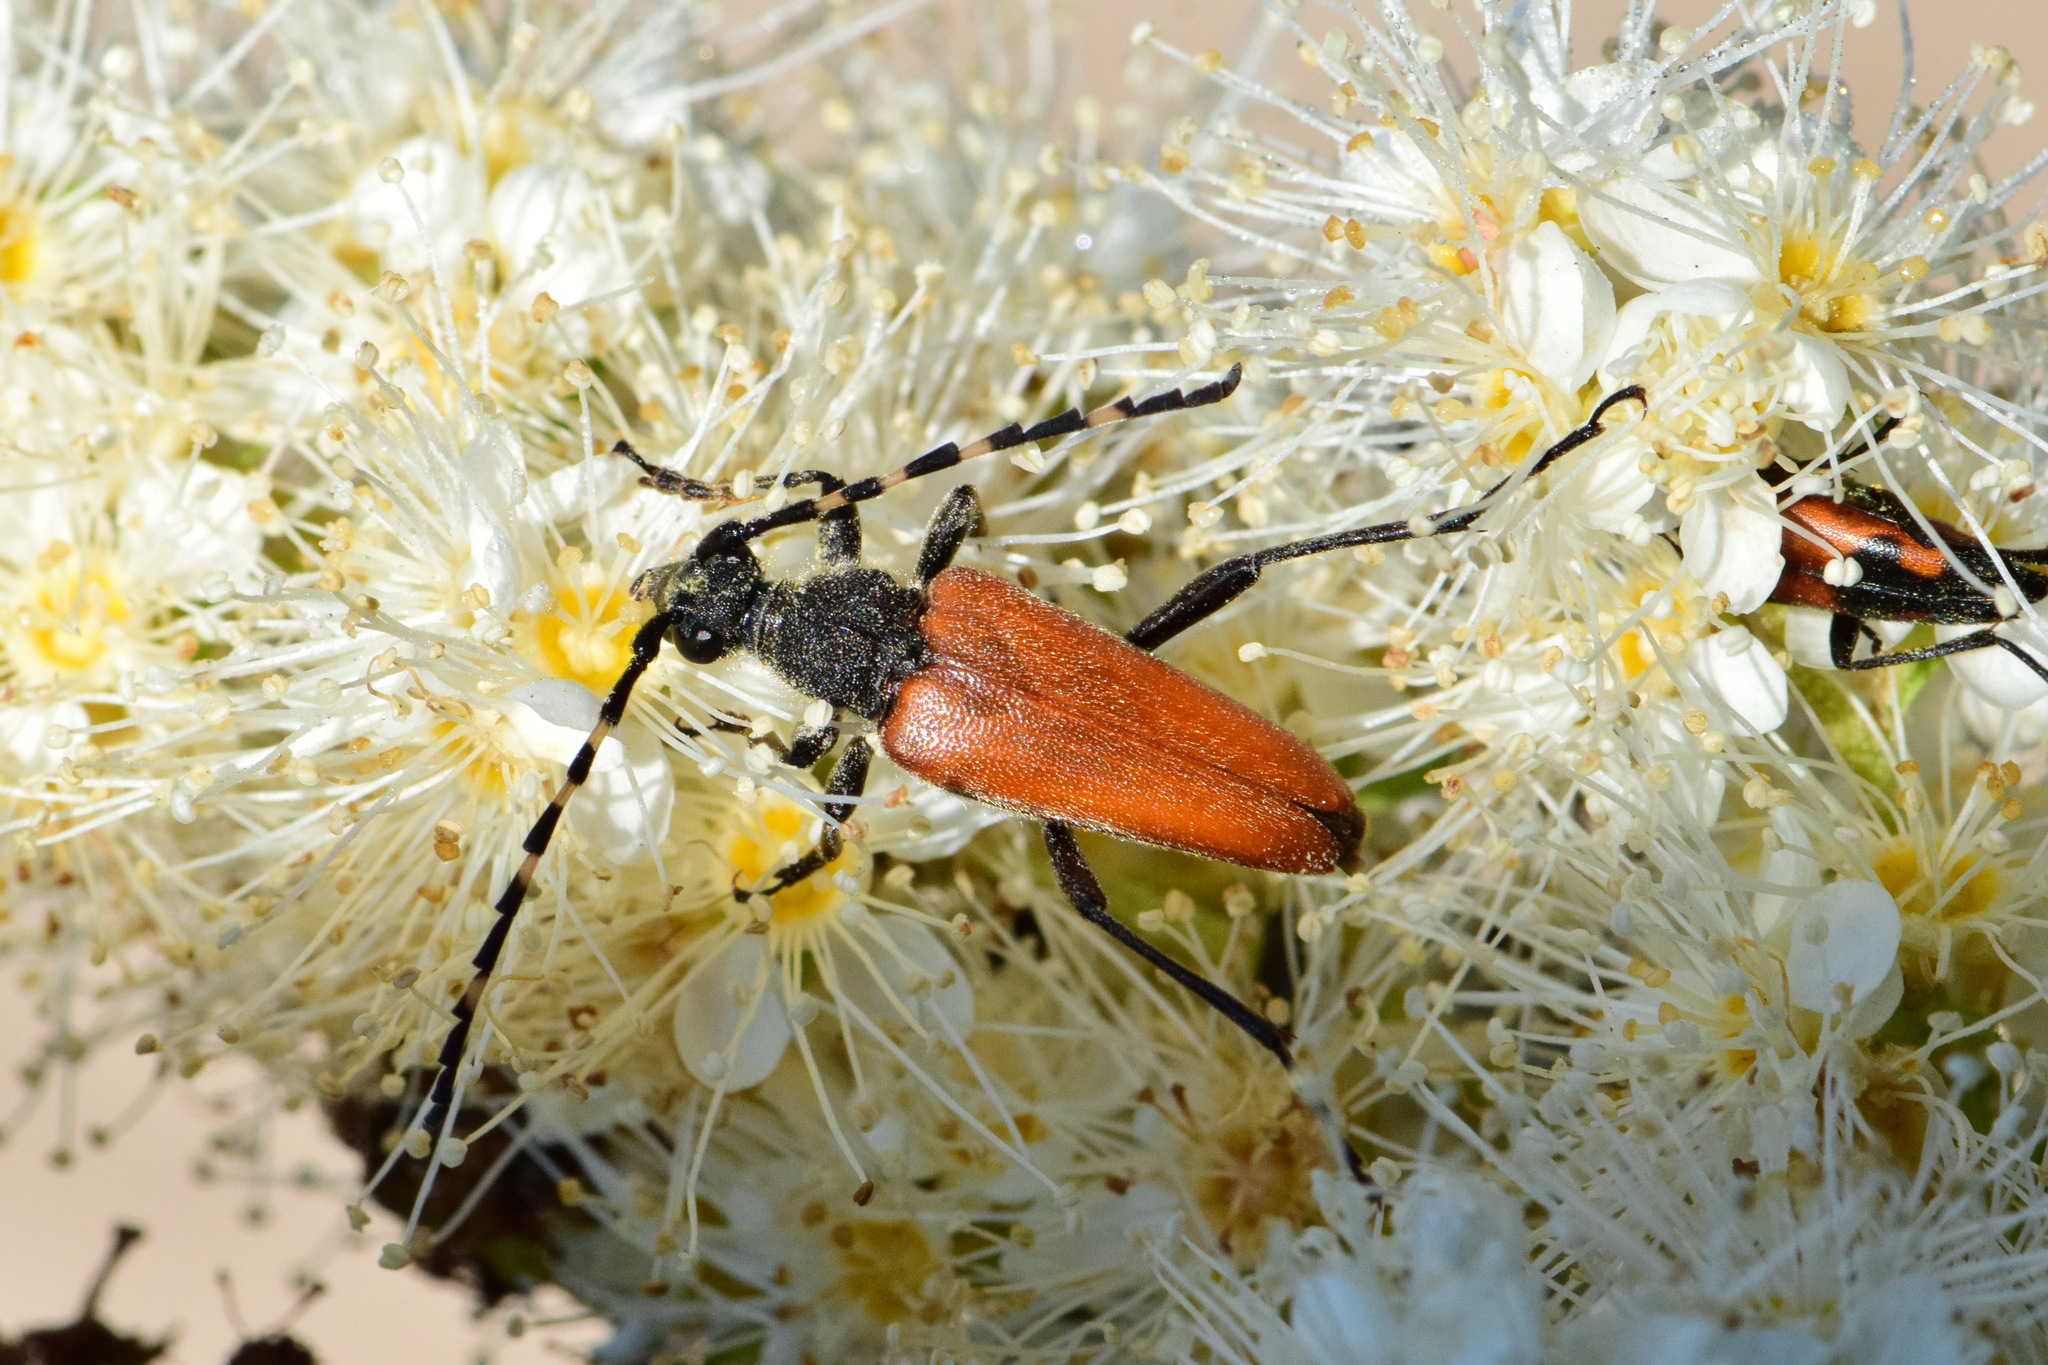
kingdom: Animalia
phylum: Arthropoda
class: Insecta
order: Coleoptera
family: Cerambycidae
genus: Stictoleptura
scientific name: Stictoleptura variicornis
